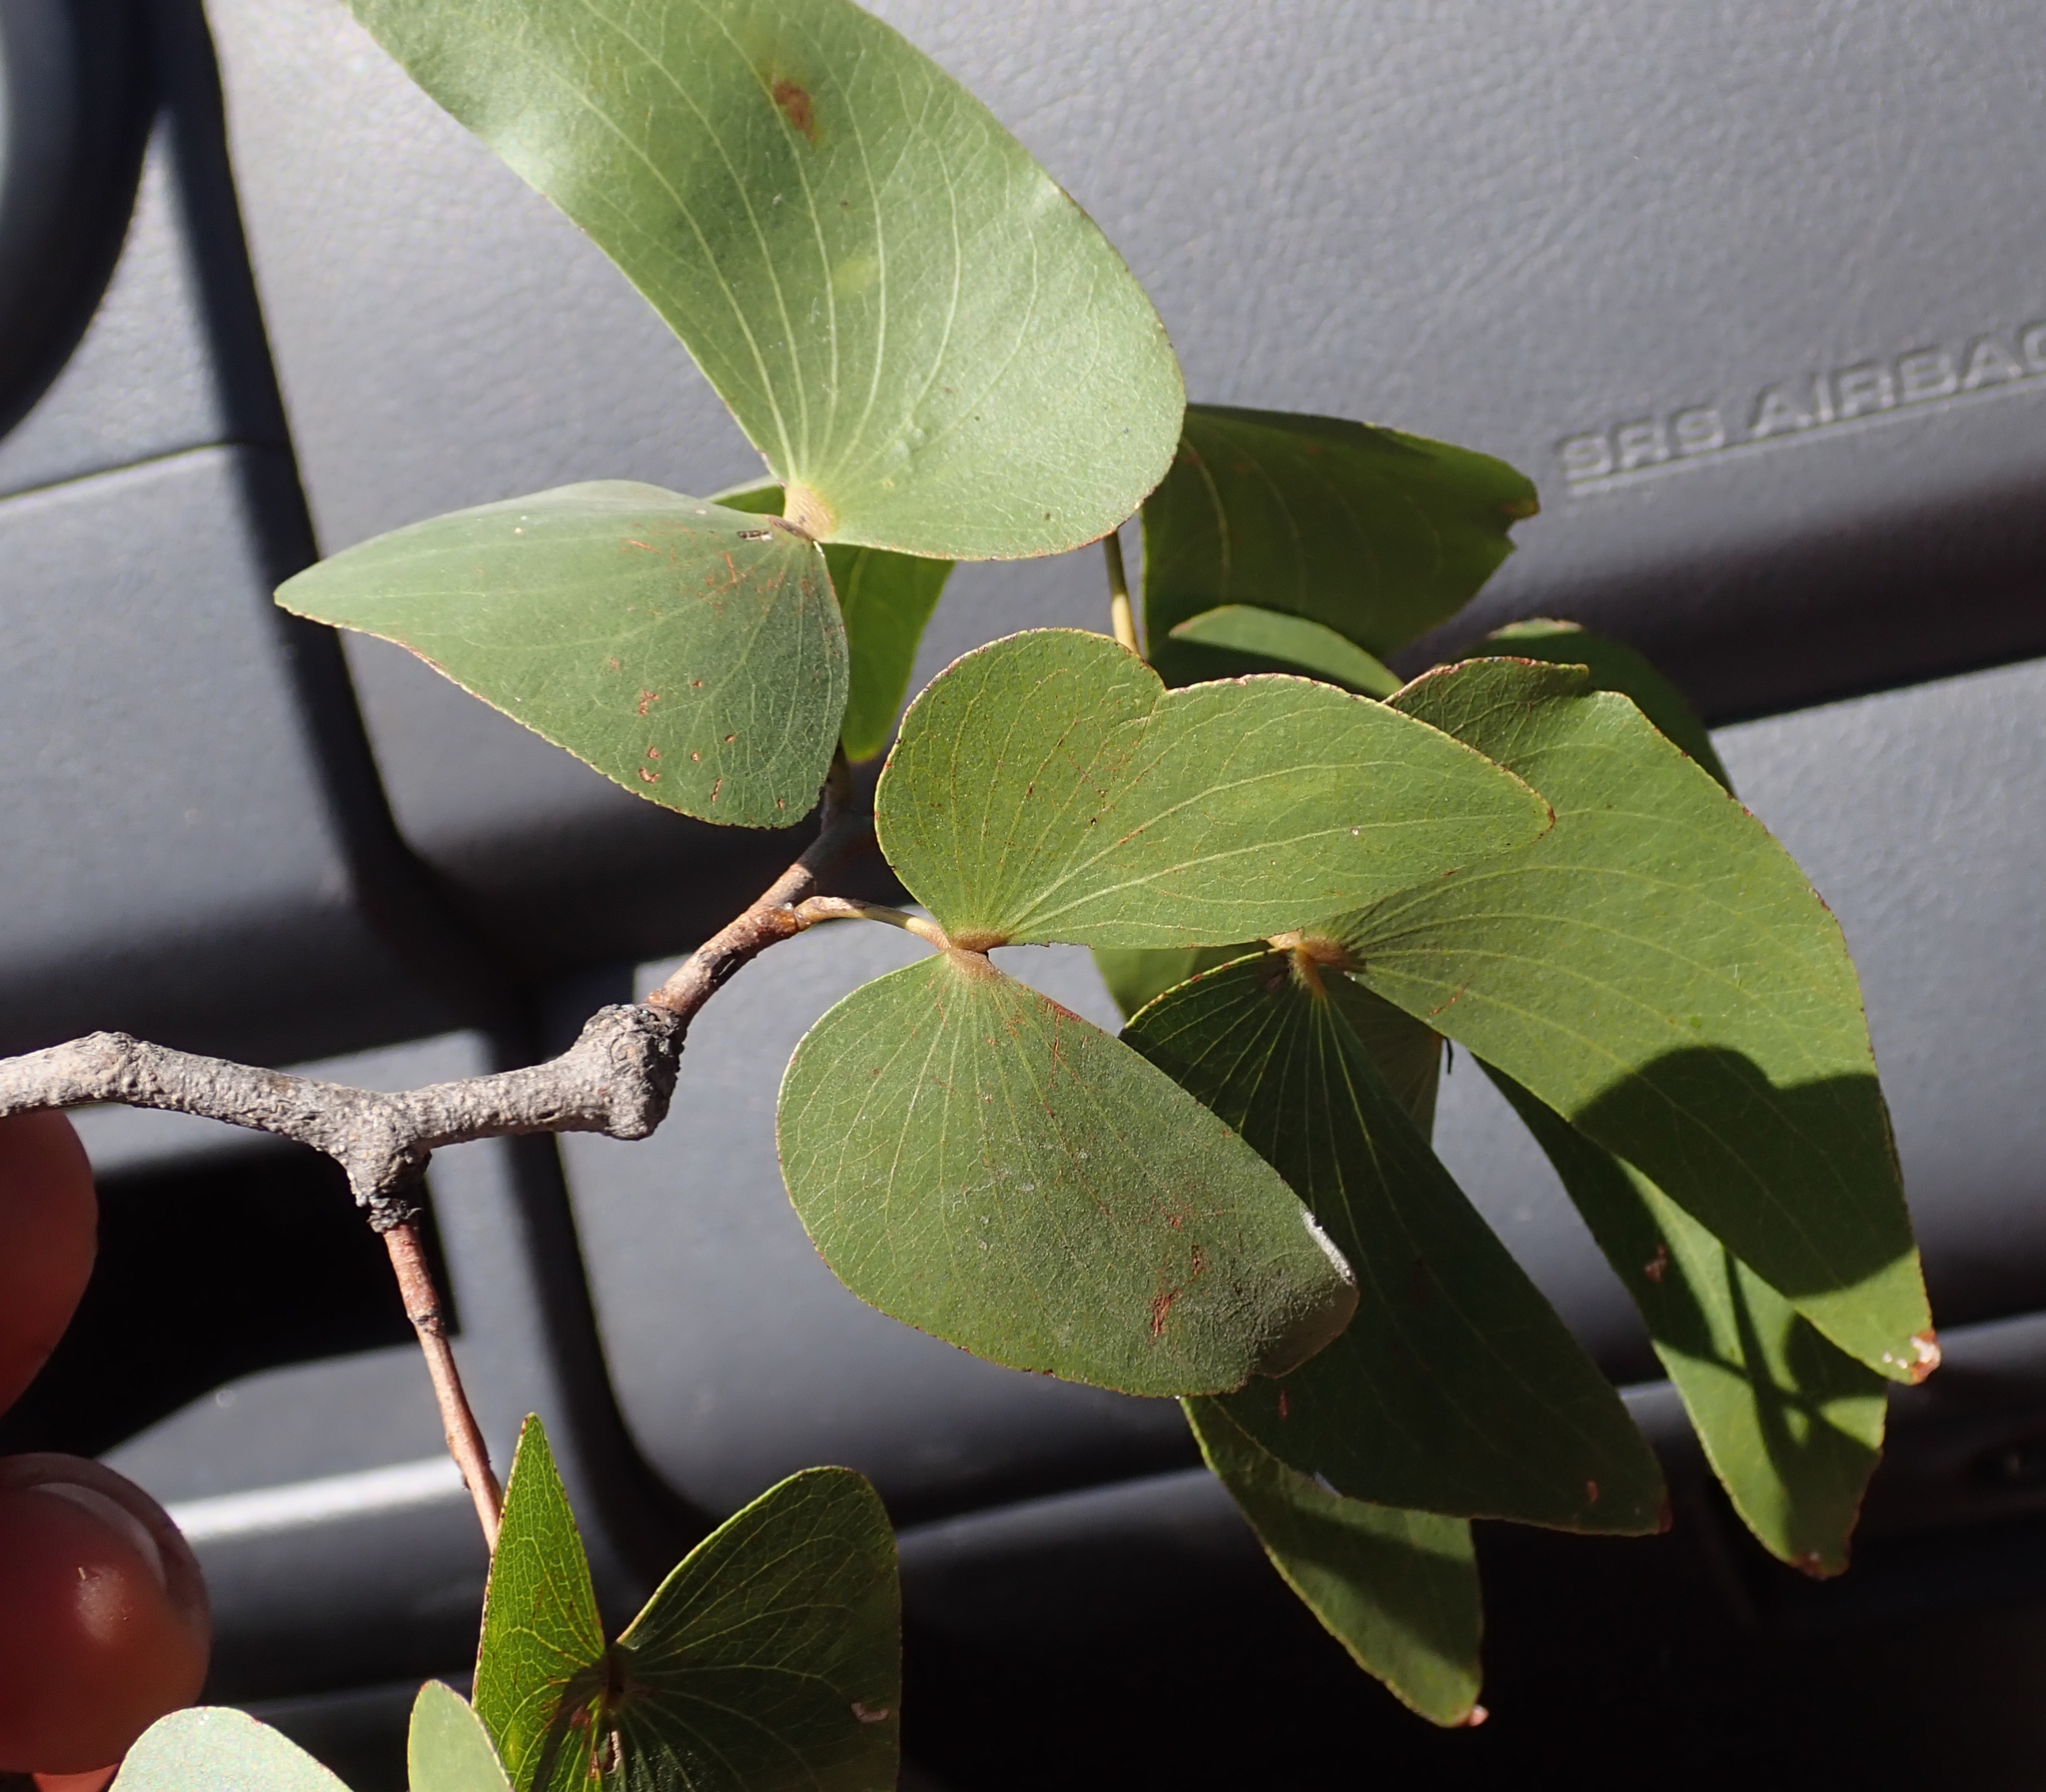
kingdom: Plantae
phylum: Tracheophyta
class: Magnoliopsida
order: Fabales
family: Fabaceae
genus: Colophospermum
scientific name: Colophospermum mopane
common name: Mopane
